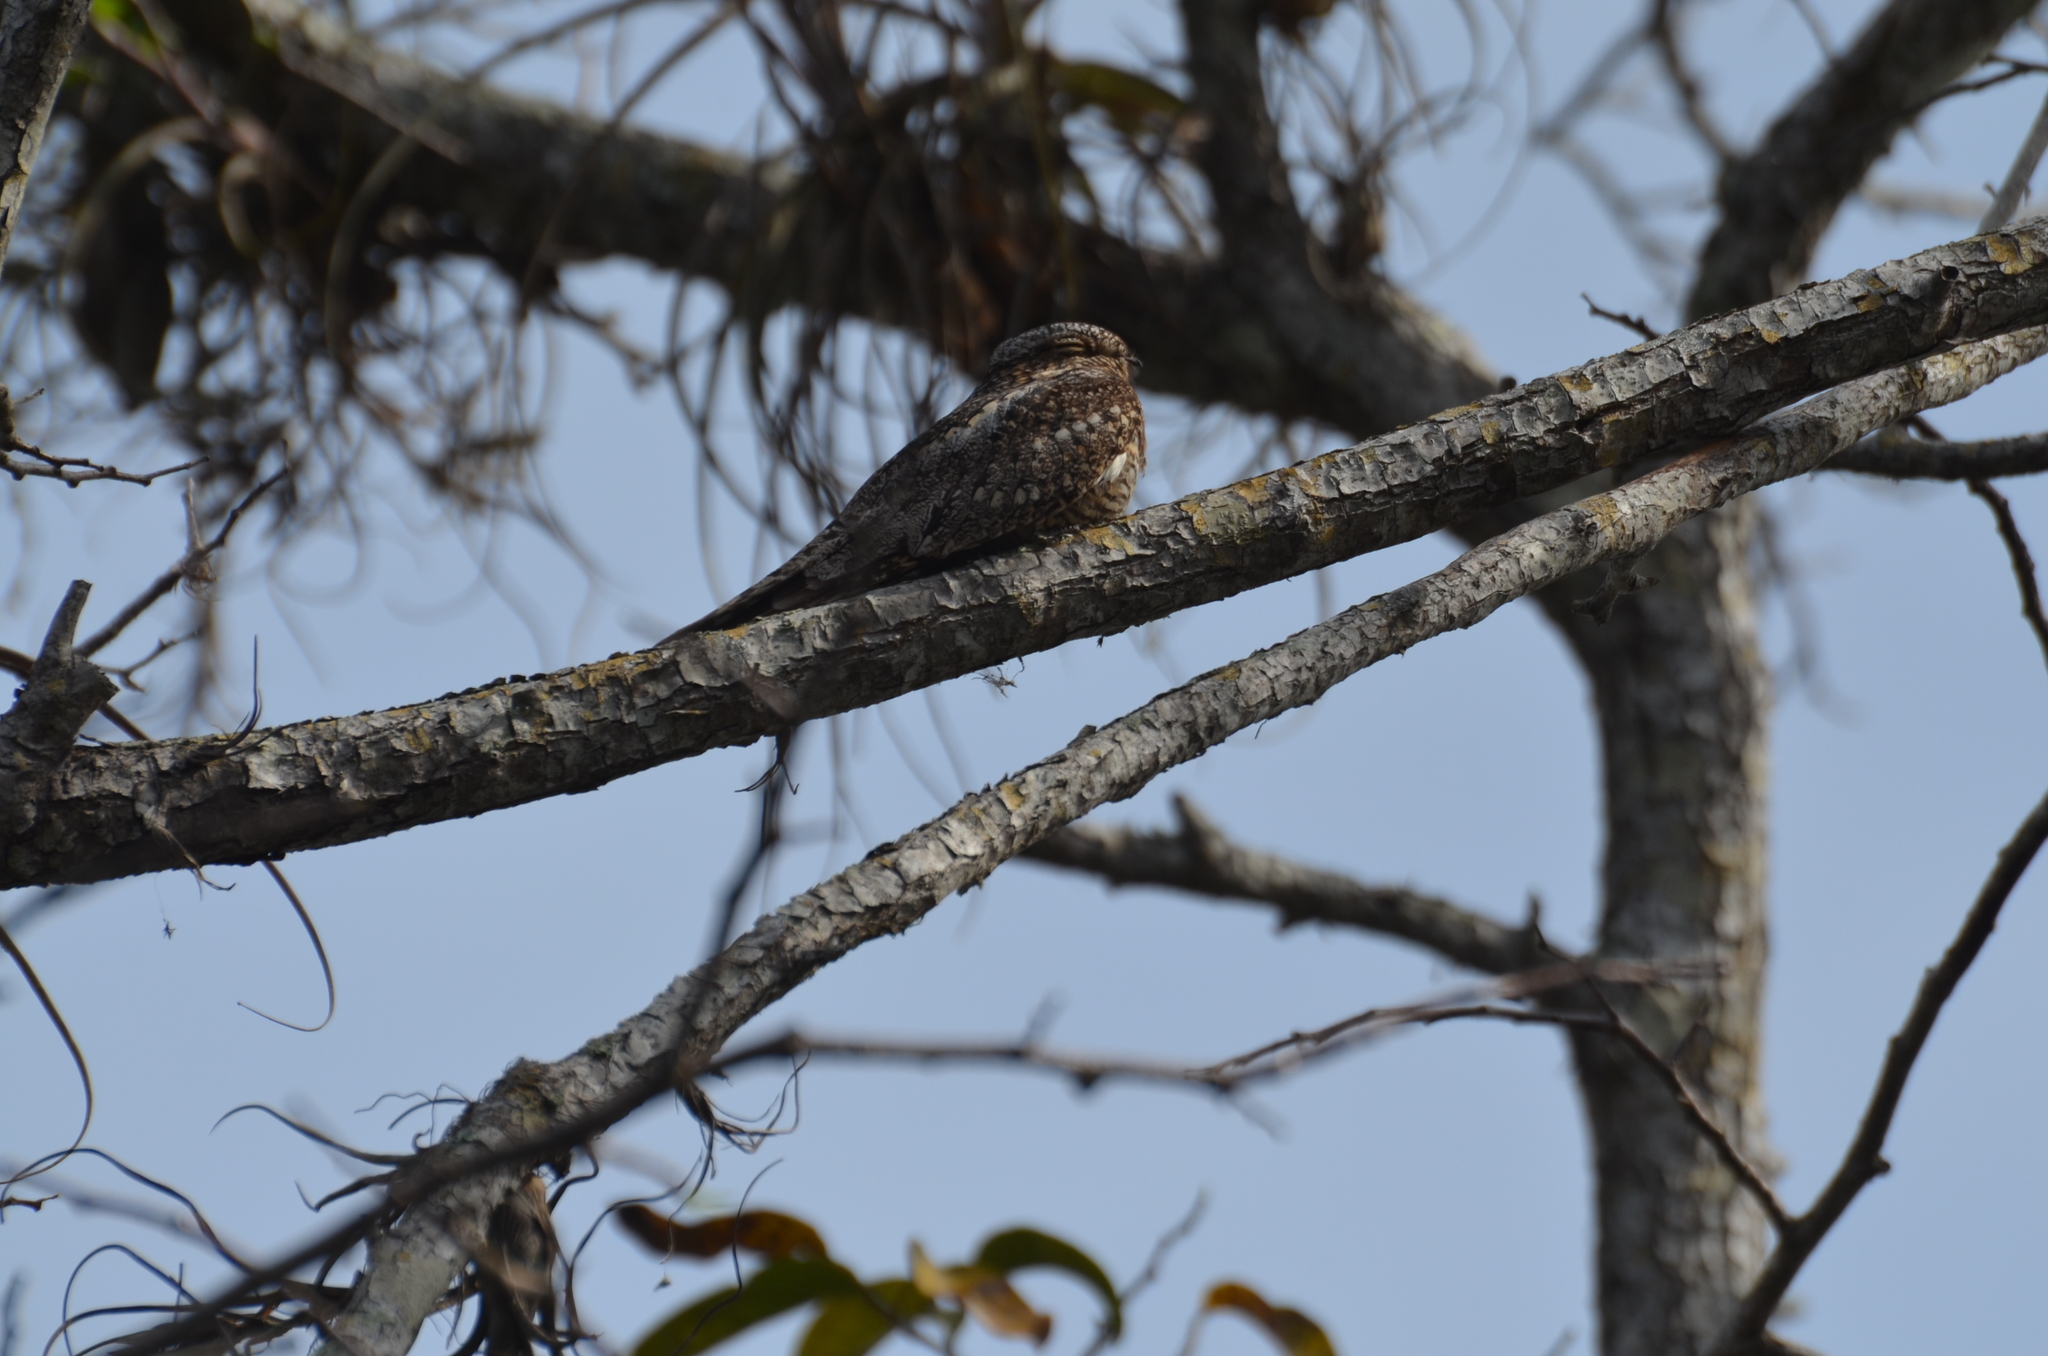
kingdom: Animalia
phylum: Chordata
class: Aves
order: Caprimulgiformes
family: Caprimulgidae
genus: Chordeiles
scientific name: Chordeiles acutipennis
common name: Lesser nighthawk
